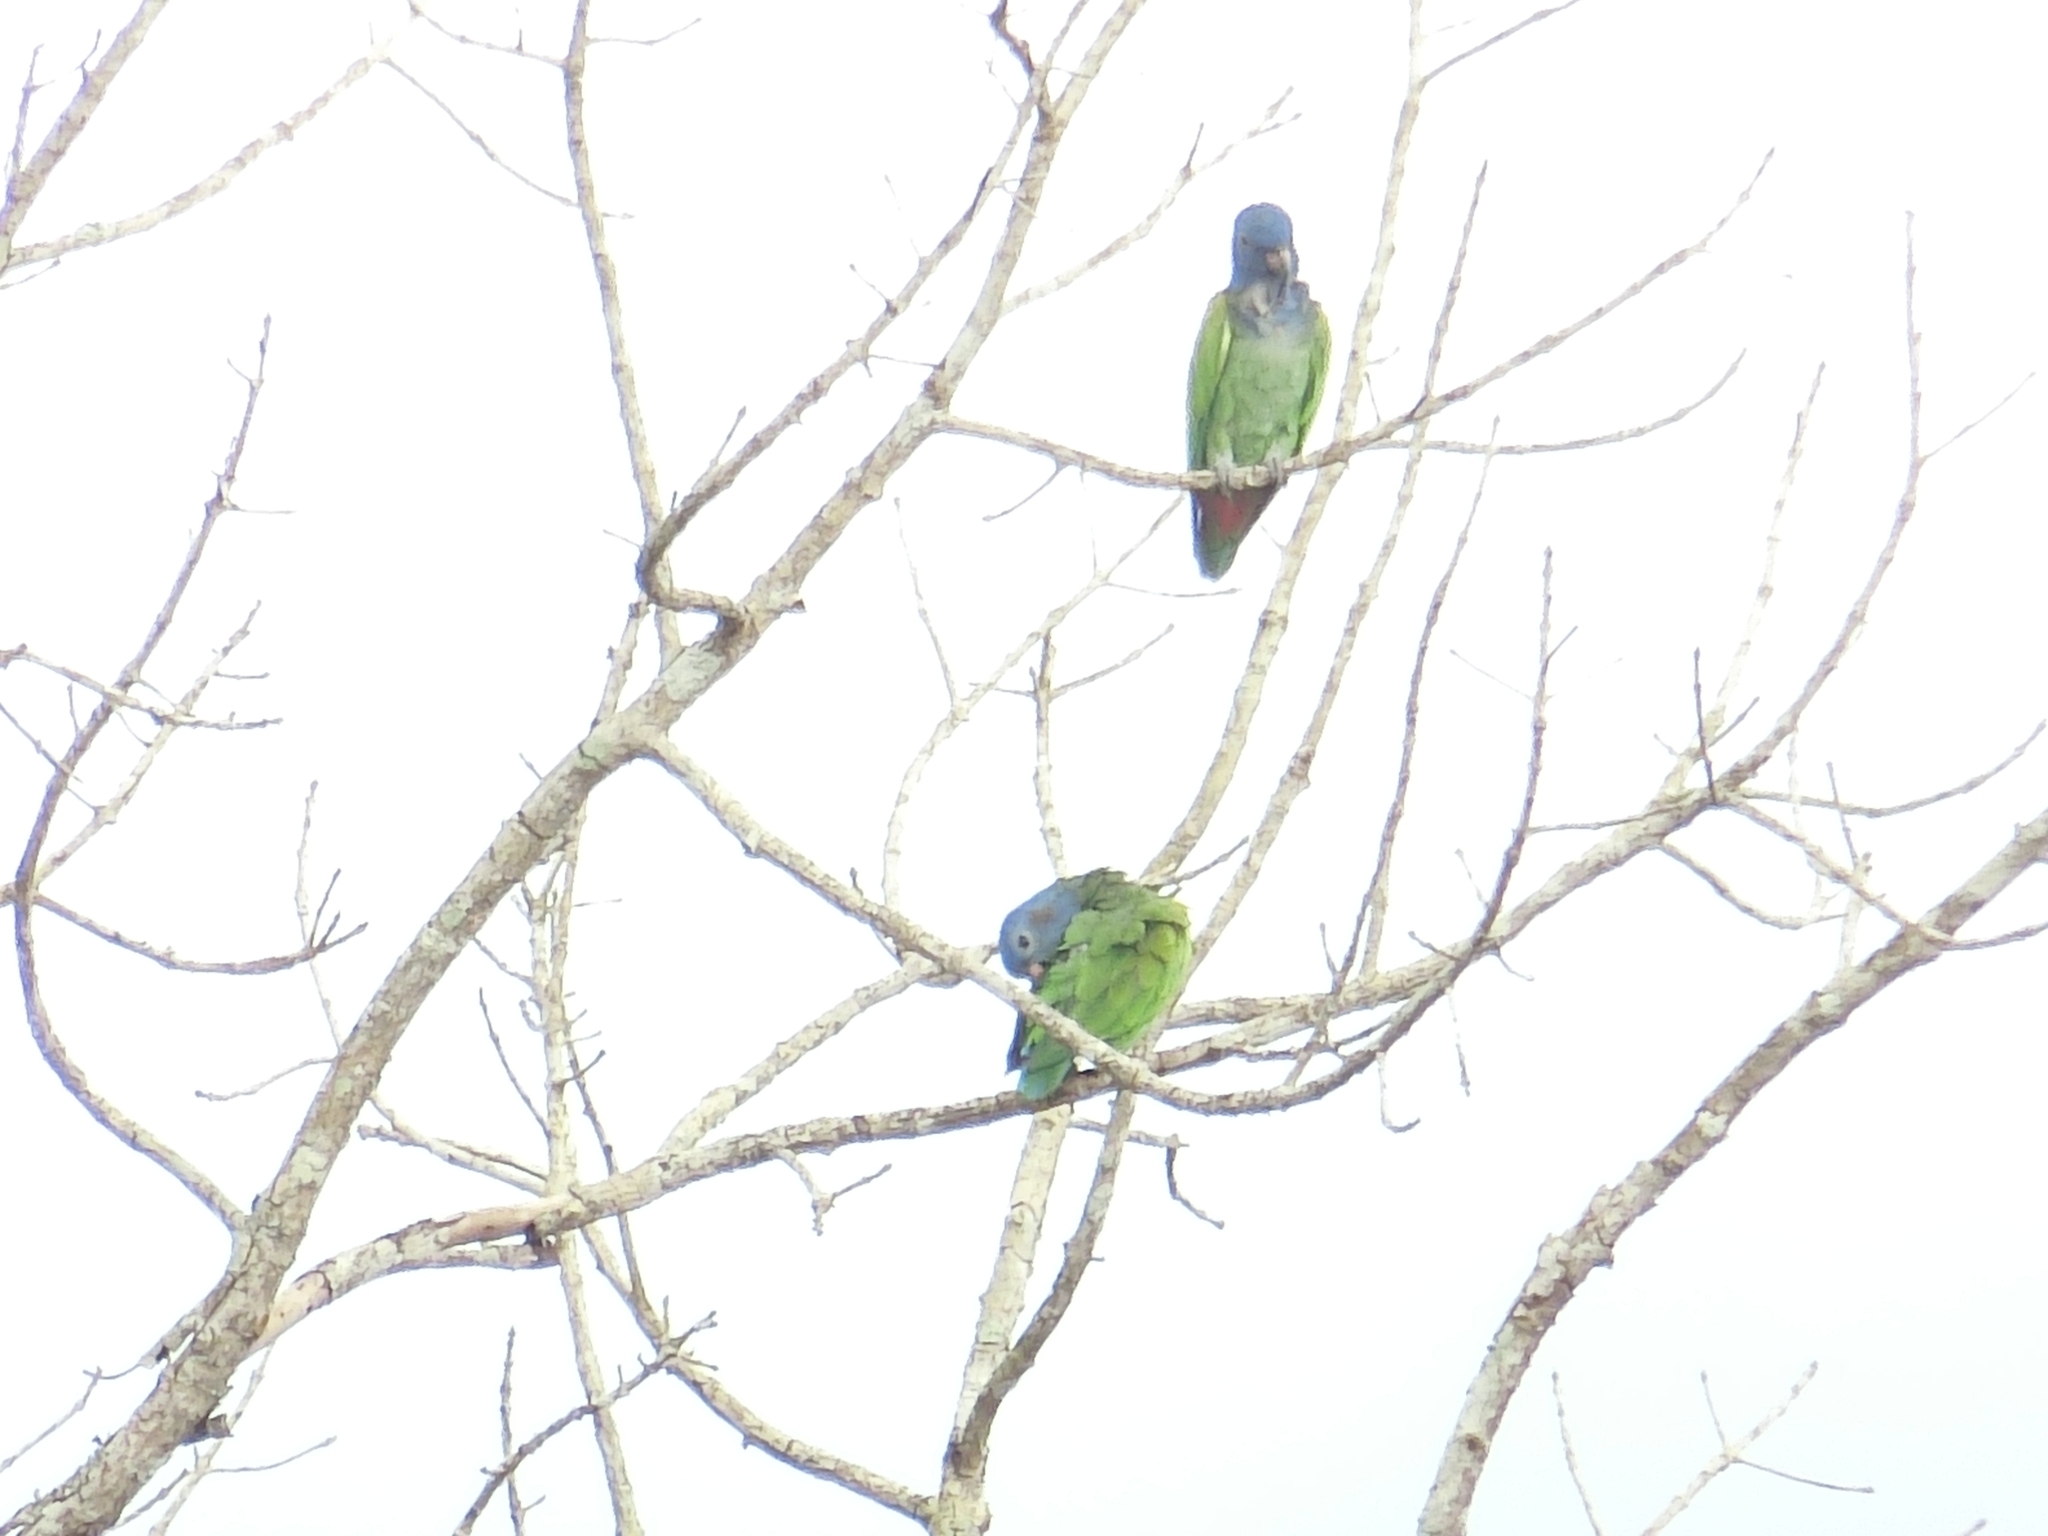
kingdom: Animalia
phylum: Chordata
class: Aves
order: Psittaciformes
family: Psittacidae
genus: Pionus
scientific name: Pionus menstruus
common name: Blue-headed parrot
